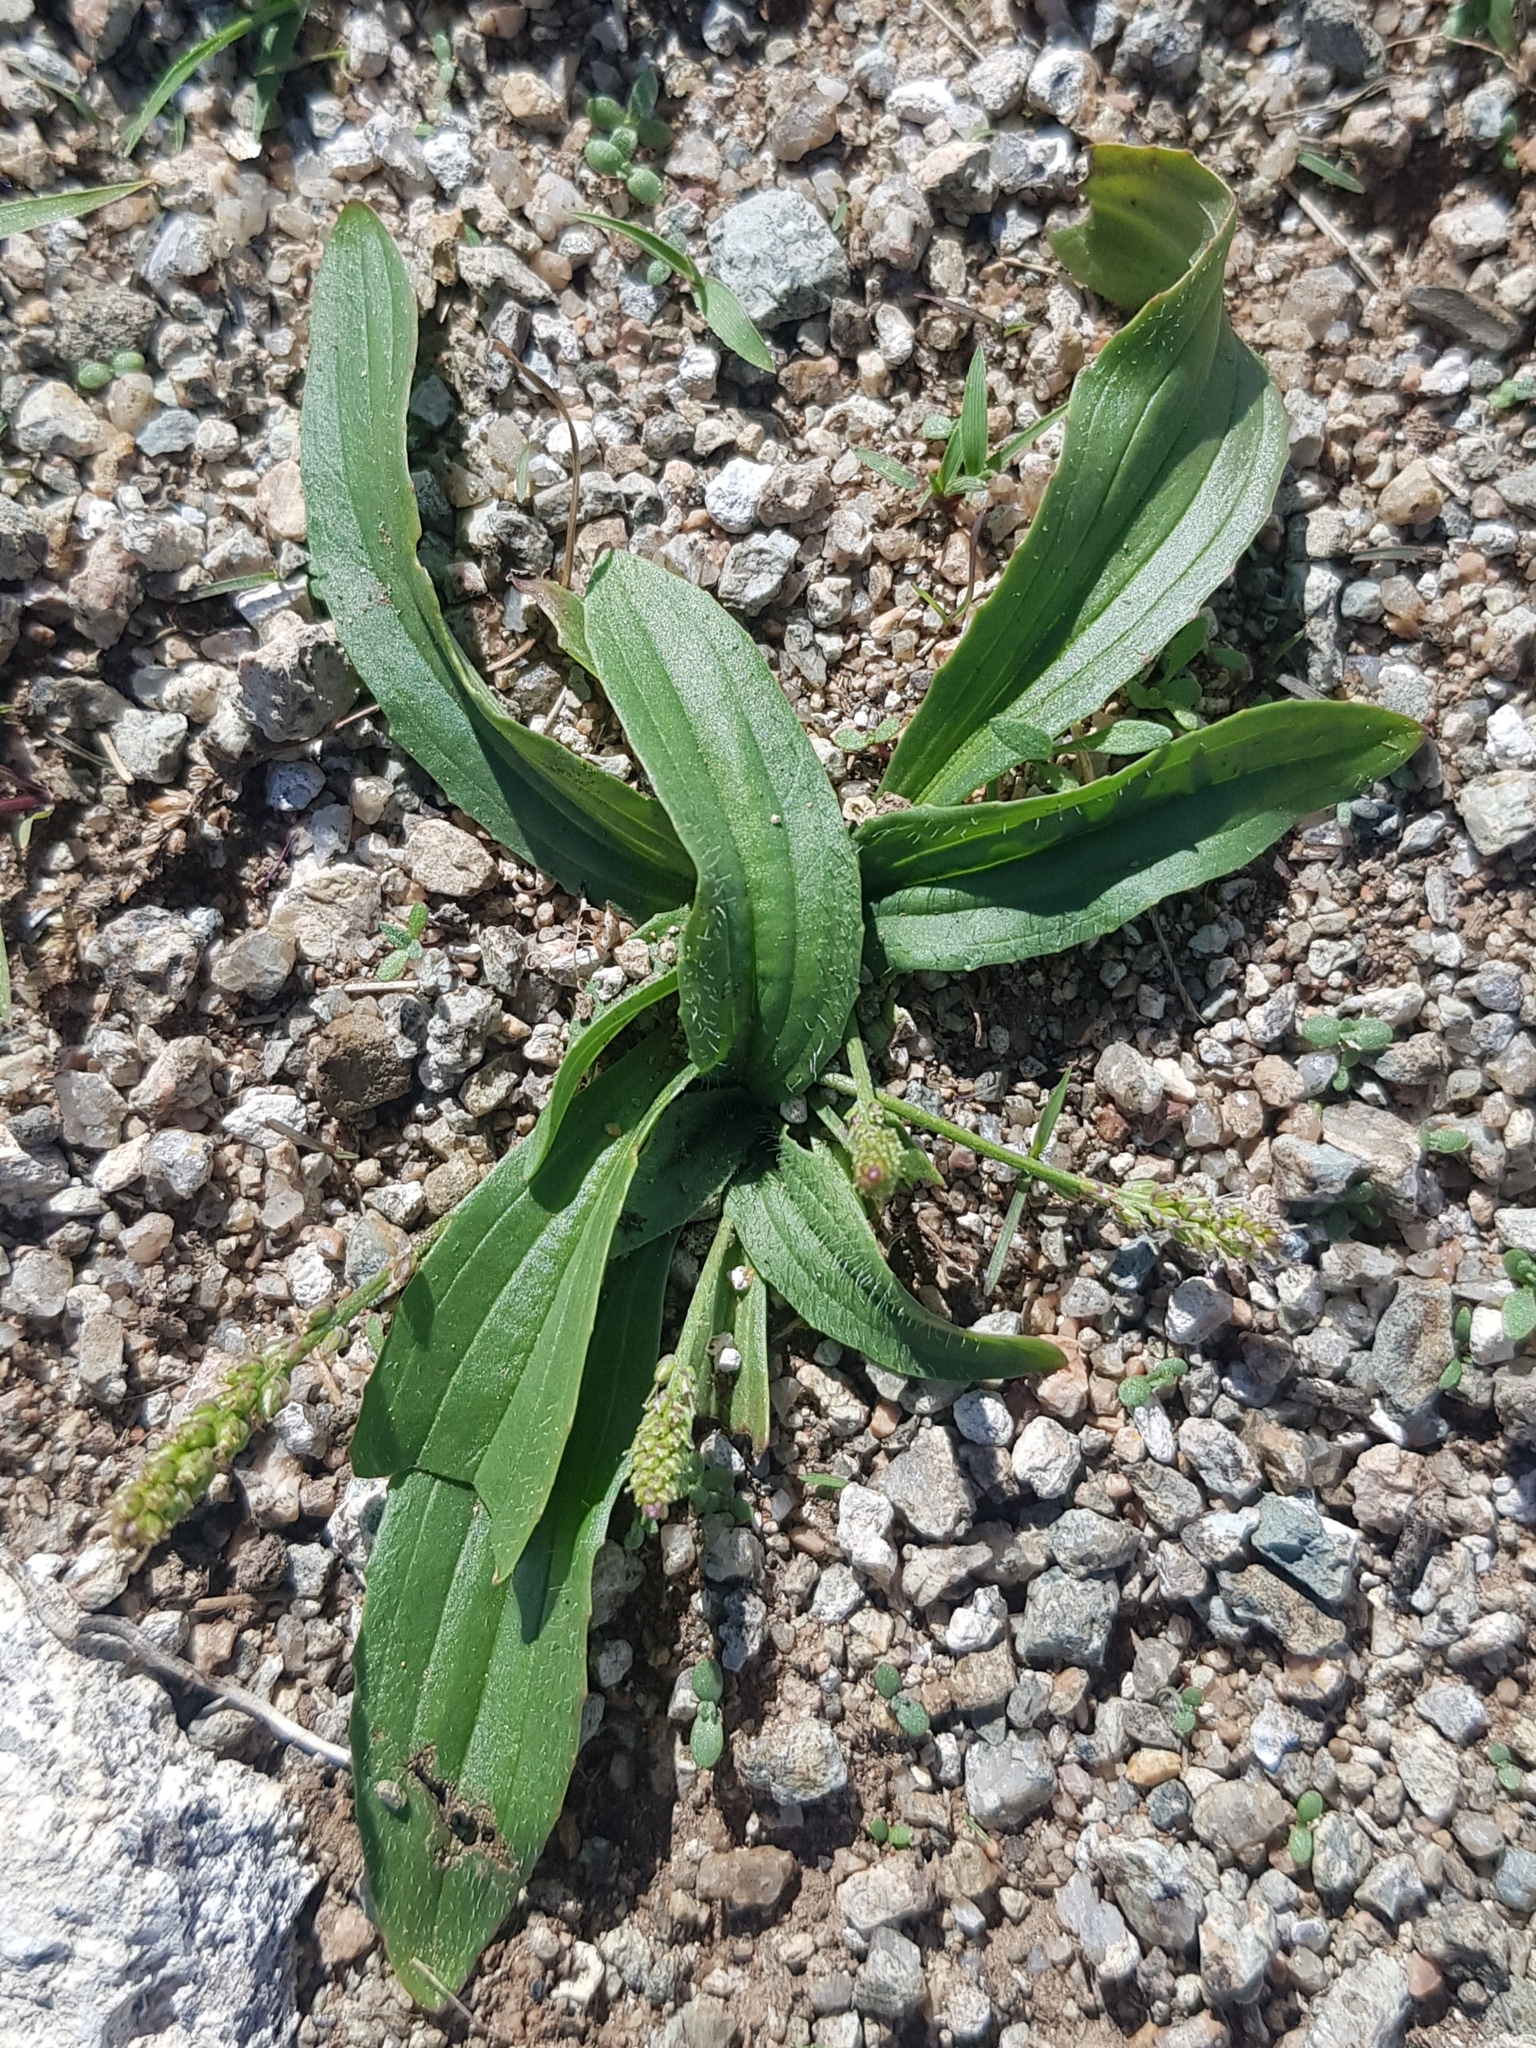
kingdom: Plantae
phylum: Tracheophyta
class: Magnoliopsida
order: Lamiales
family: Plantaginaceae
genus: Plantago
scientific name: Plantago depressa
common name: Depressed plantain
